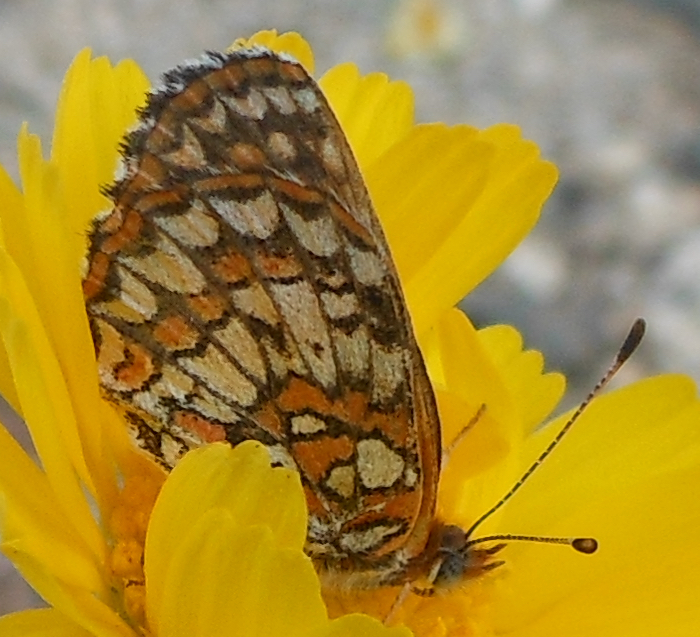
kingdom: Animalia
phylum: Arthropoda
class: Insecta
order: Lepidoptera
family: Nymphalidae
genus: Chlosyne
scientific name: Chlosyne acastus
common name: Sagebrush checkerspot
